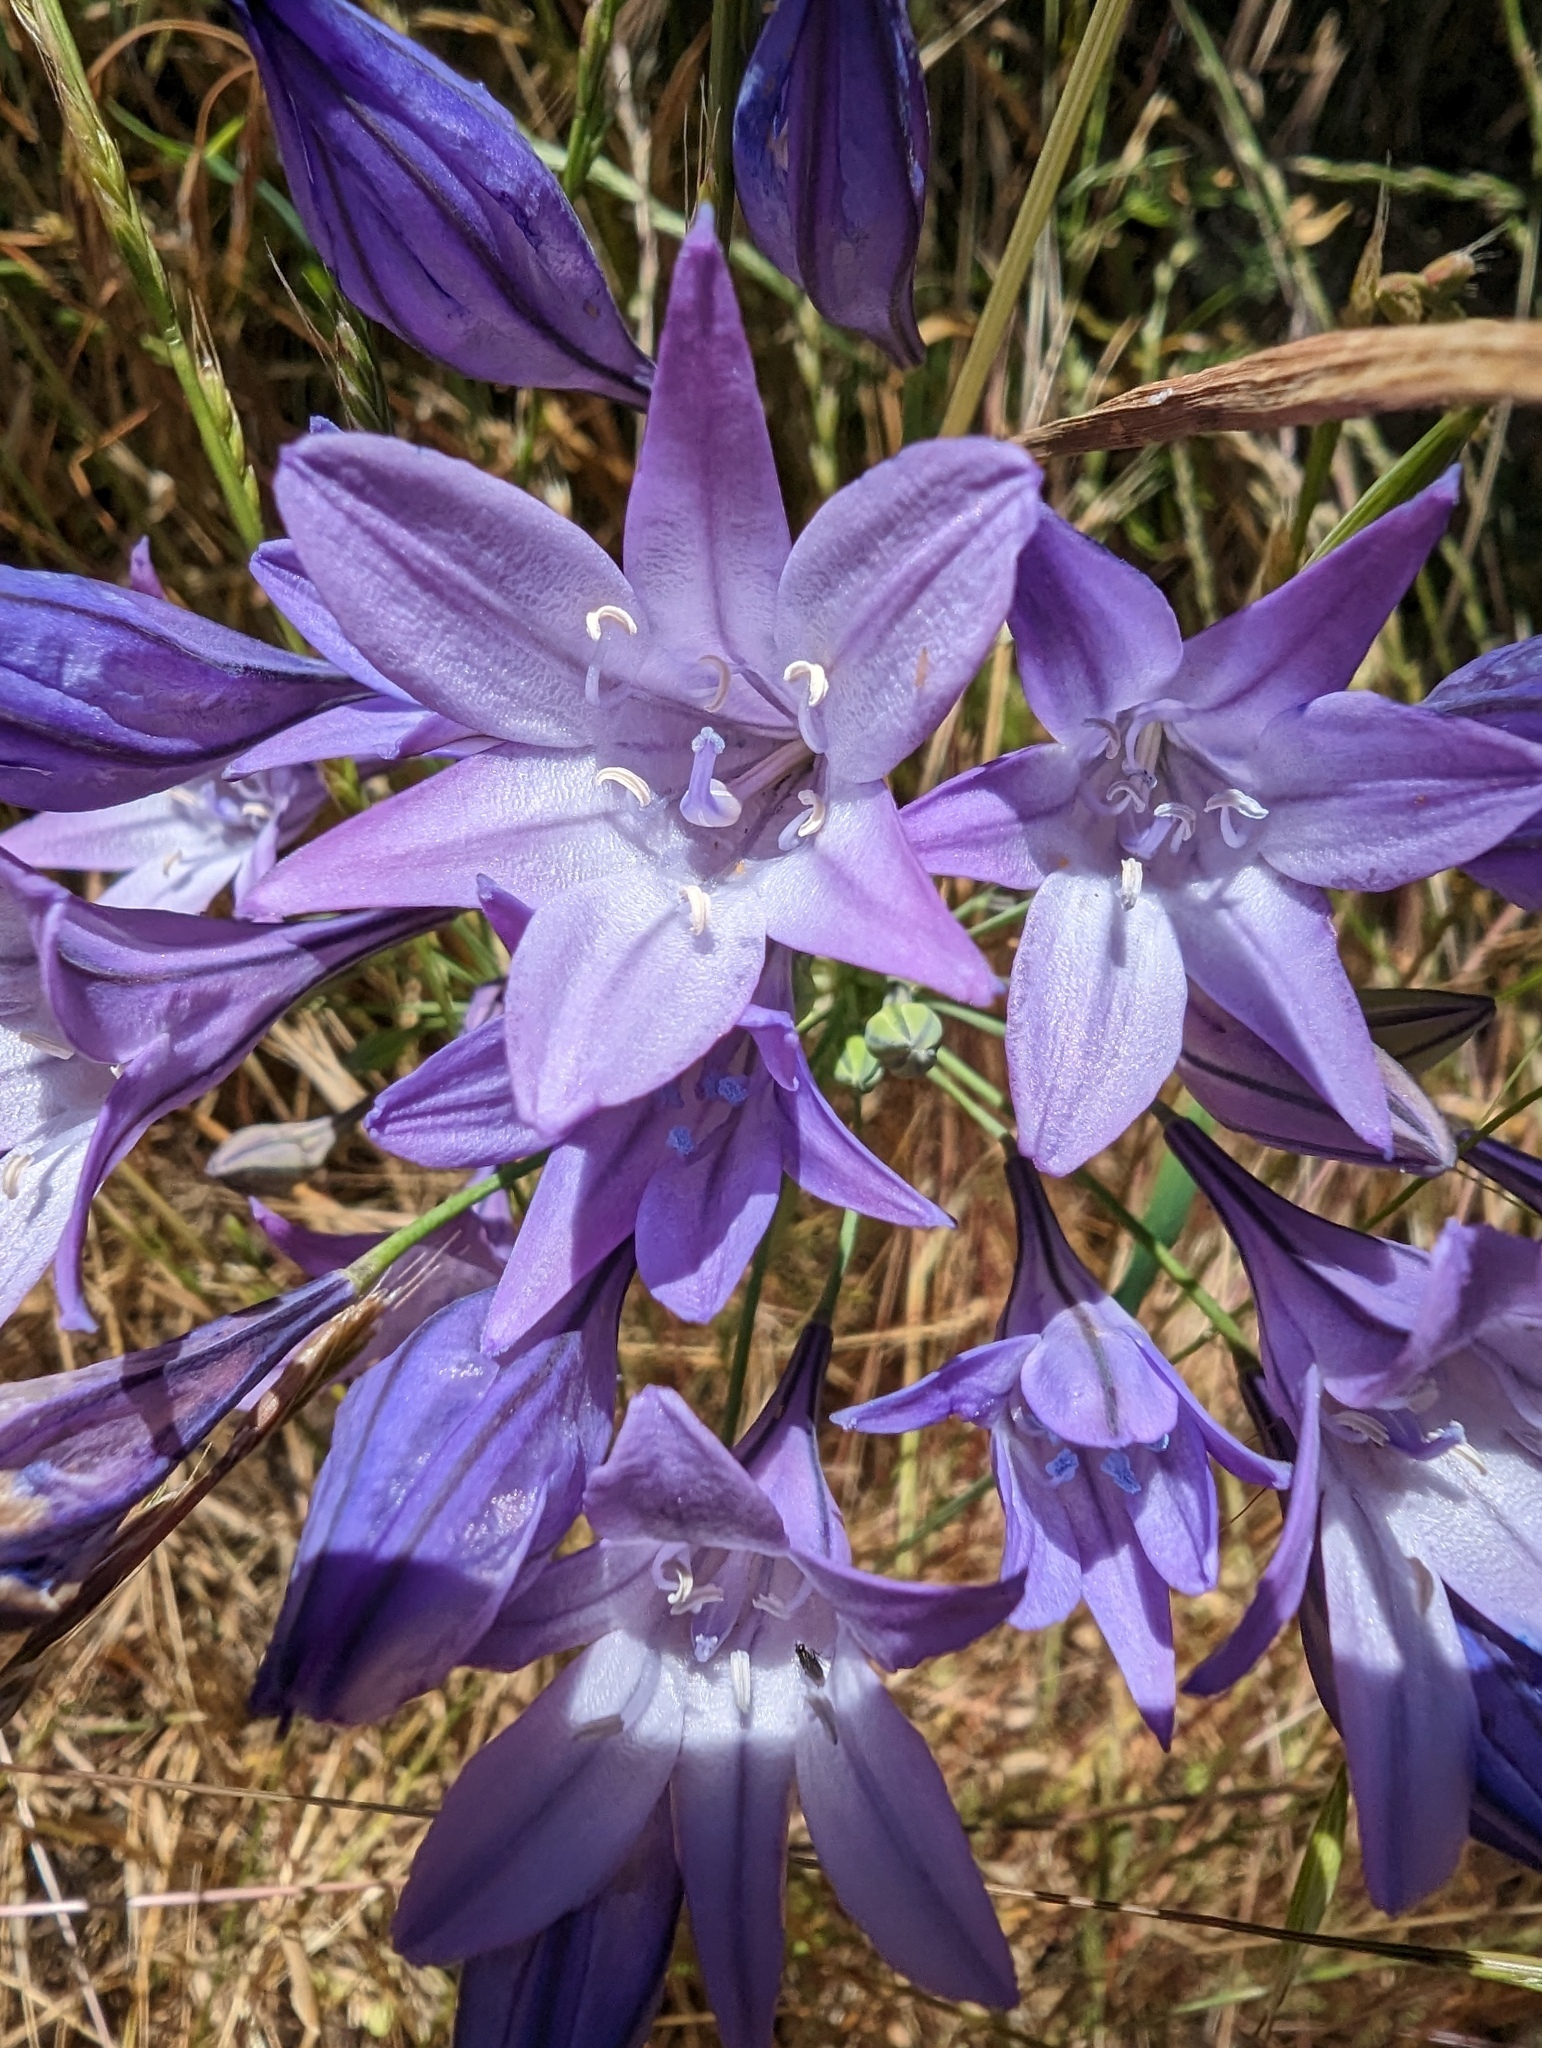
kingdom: Plantae
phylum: Tracheophyta
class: Liliopsida
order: Asparagales
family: Asparagaceae
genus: Triteleia
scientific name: Triteleia laxa
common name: Triplet-lily
